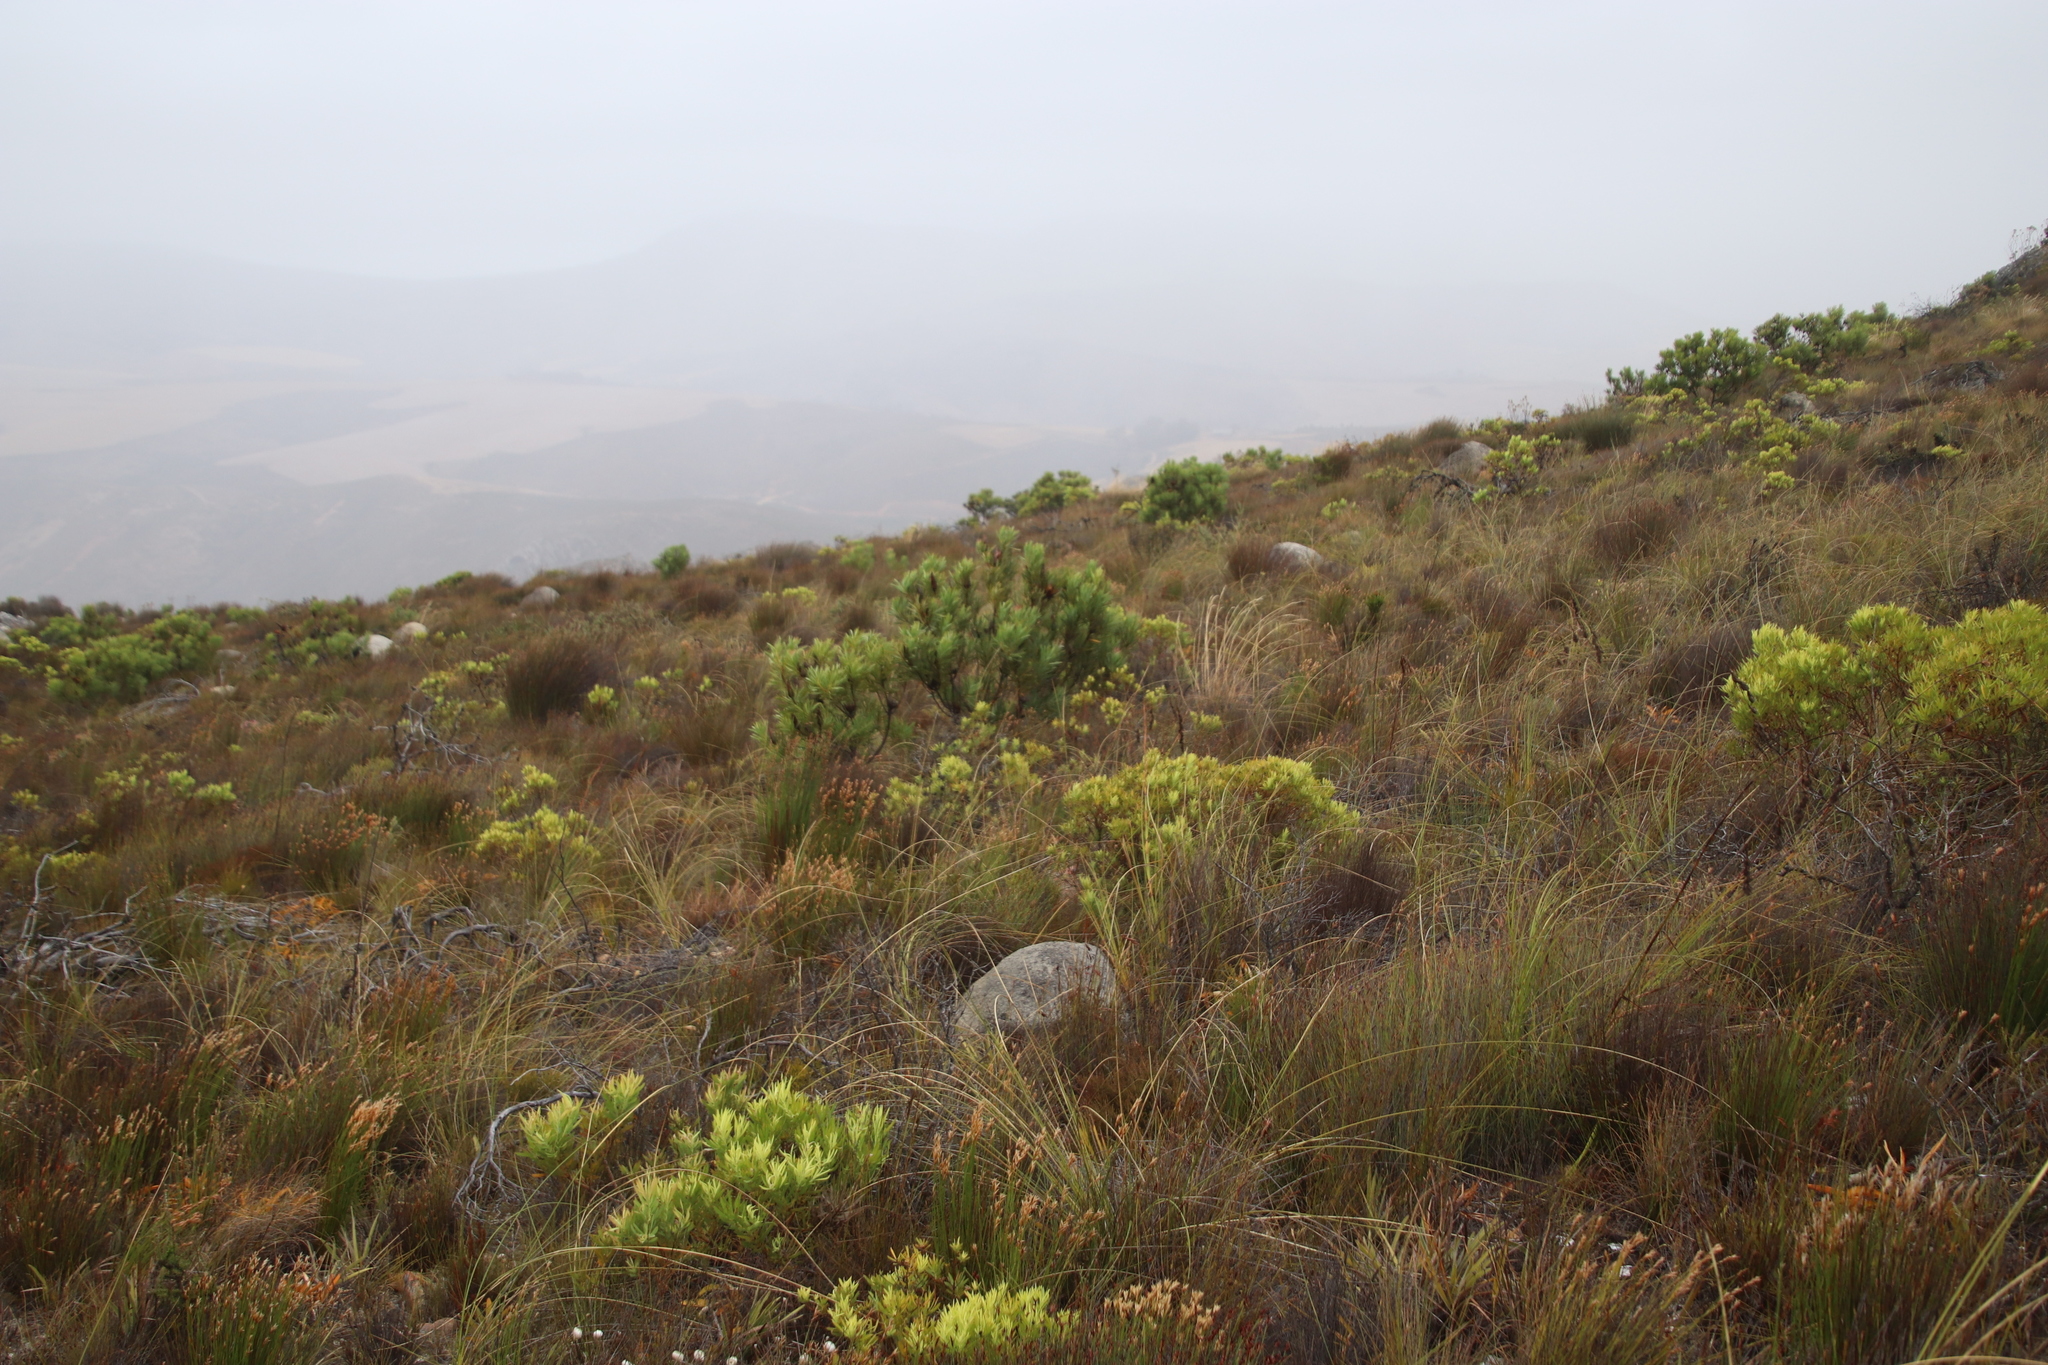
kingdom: Plantae
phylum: Tracheophyta
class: Magnoliopsida
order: Proteales
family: Proteaceae
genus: Protea
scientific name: Protea repens
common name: Sugarbush
